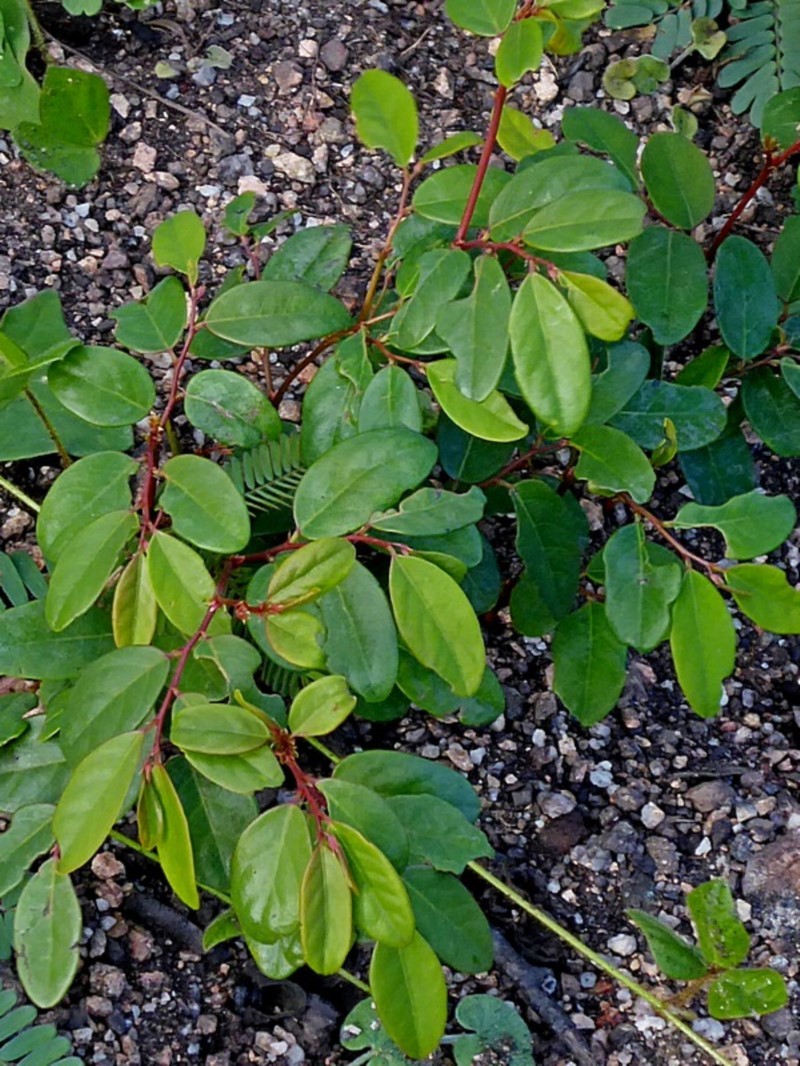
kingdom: Plantae
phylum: Tracheophyta
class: Magnoliopsida
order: Malpighiales
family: Phyllanthaceae
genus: Breynia
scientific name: Breynia oblongifolia
